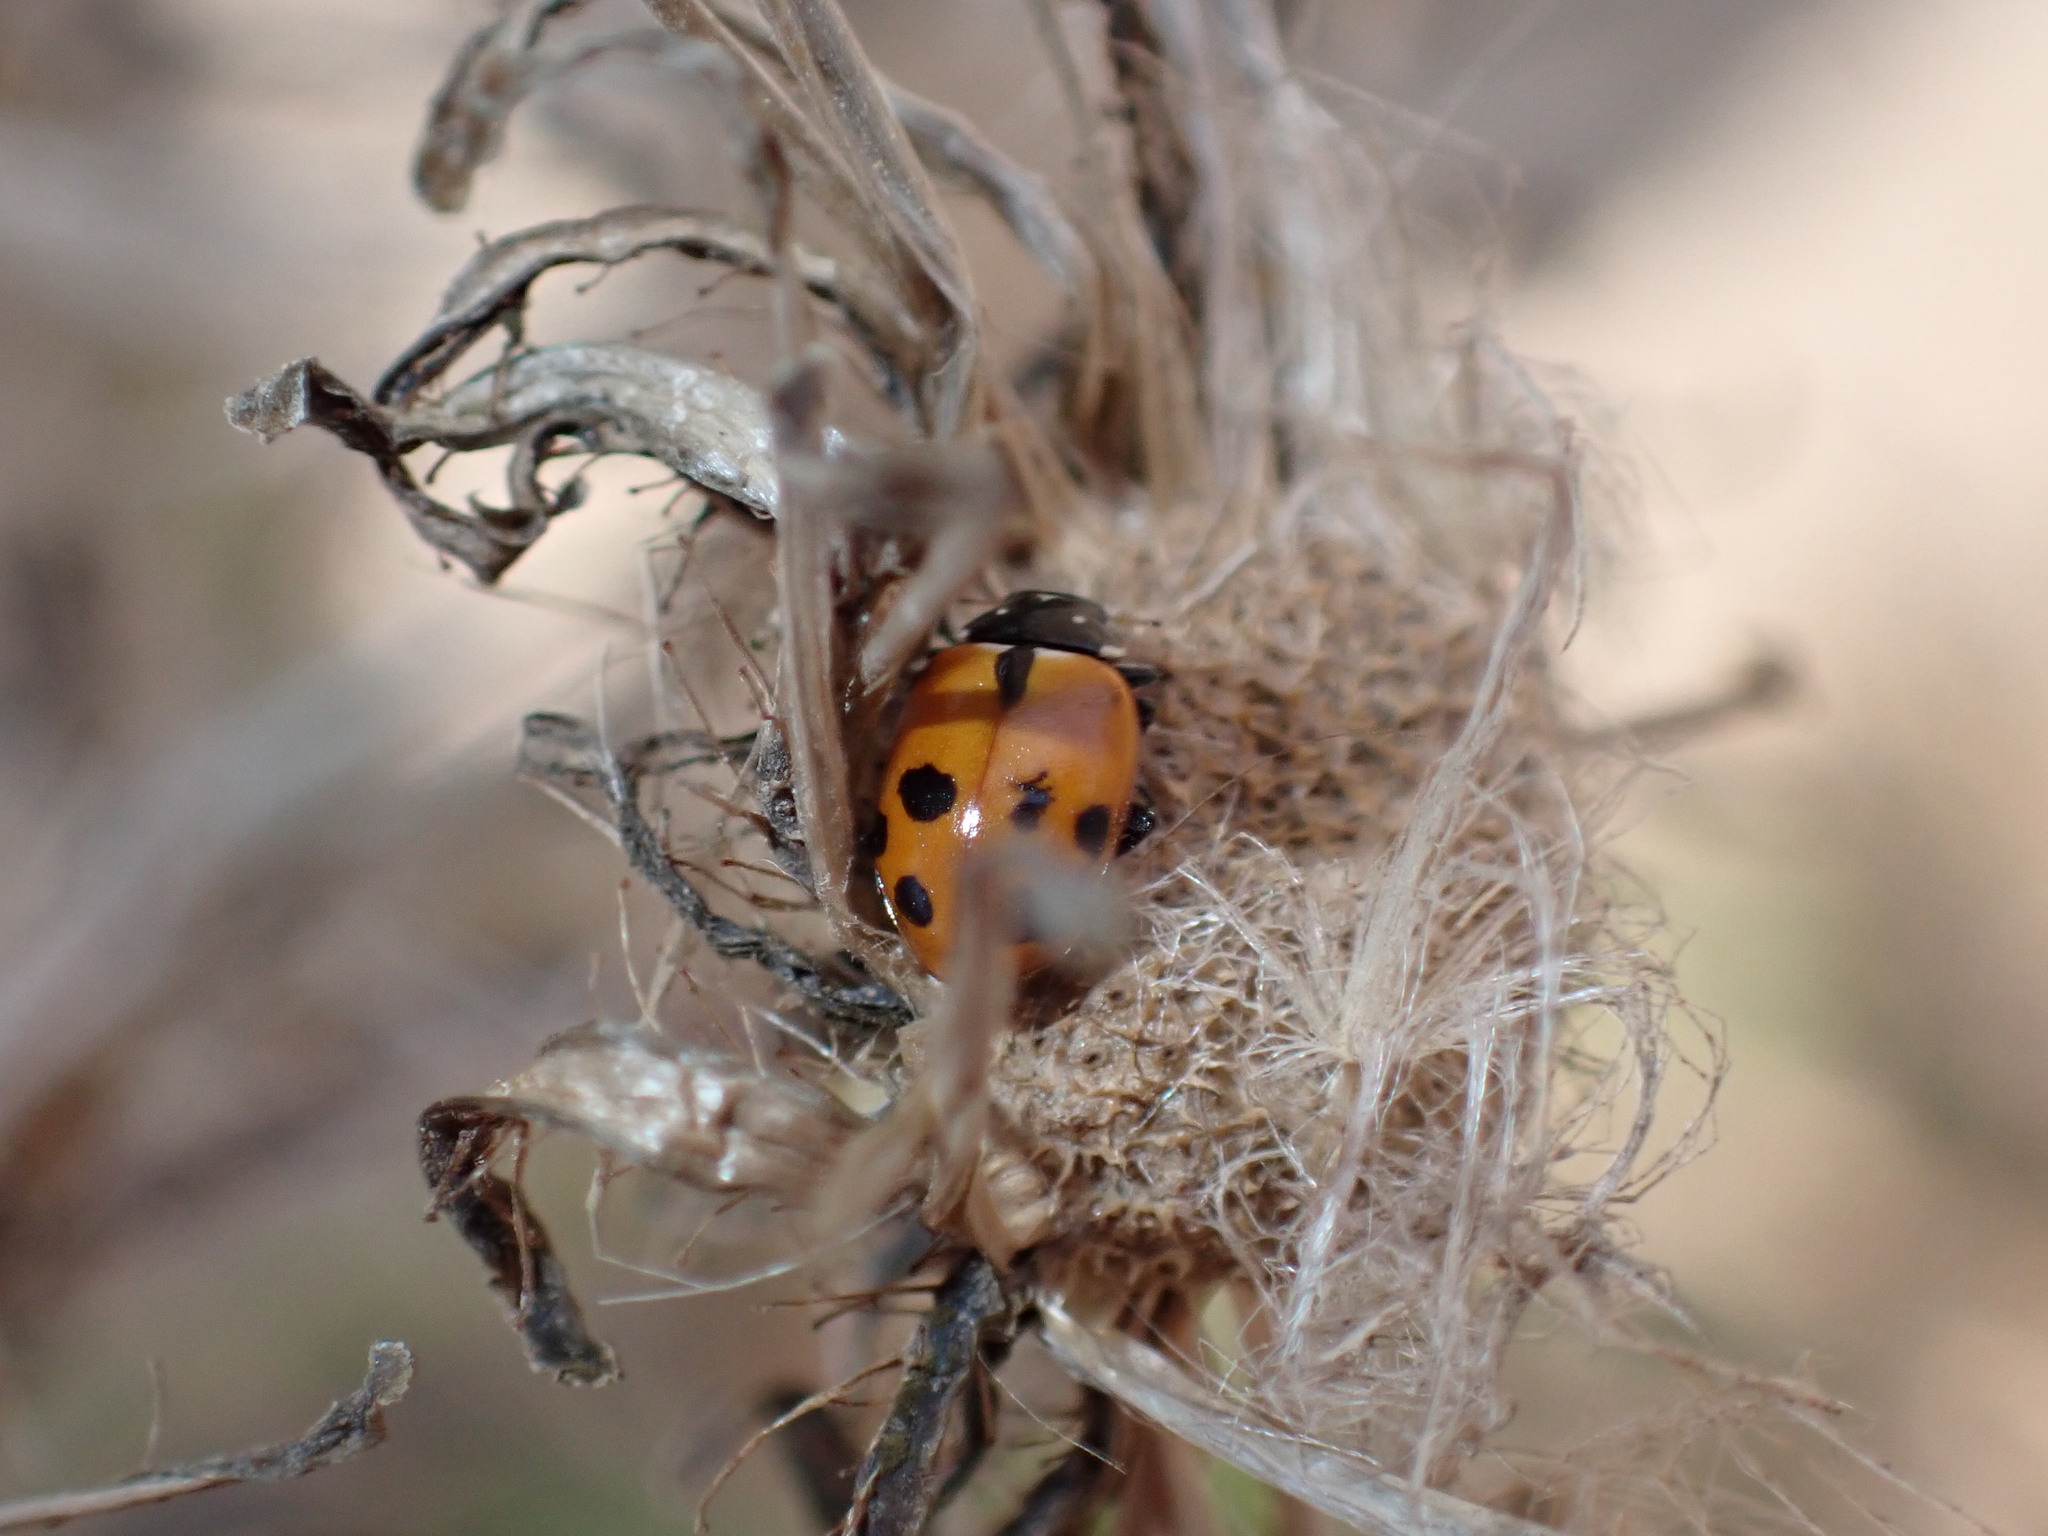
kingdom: Animalia
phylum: Arthropoda
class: Insecta
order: Coleoptera
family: Coccinellidae
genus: Hippodamia
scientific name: Hippodamia variegata
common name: Ladybird beetle
